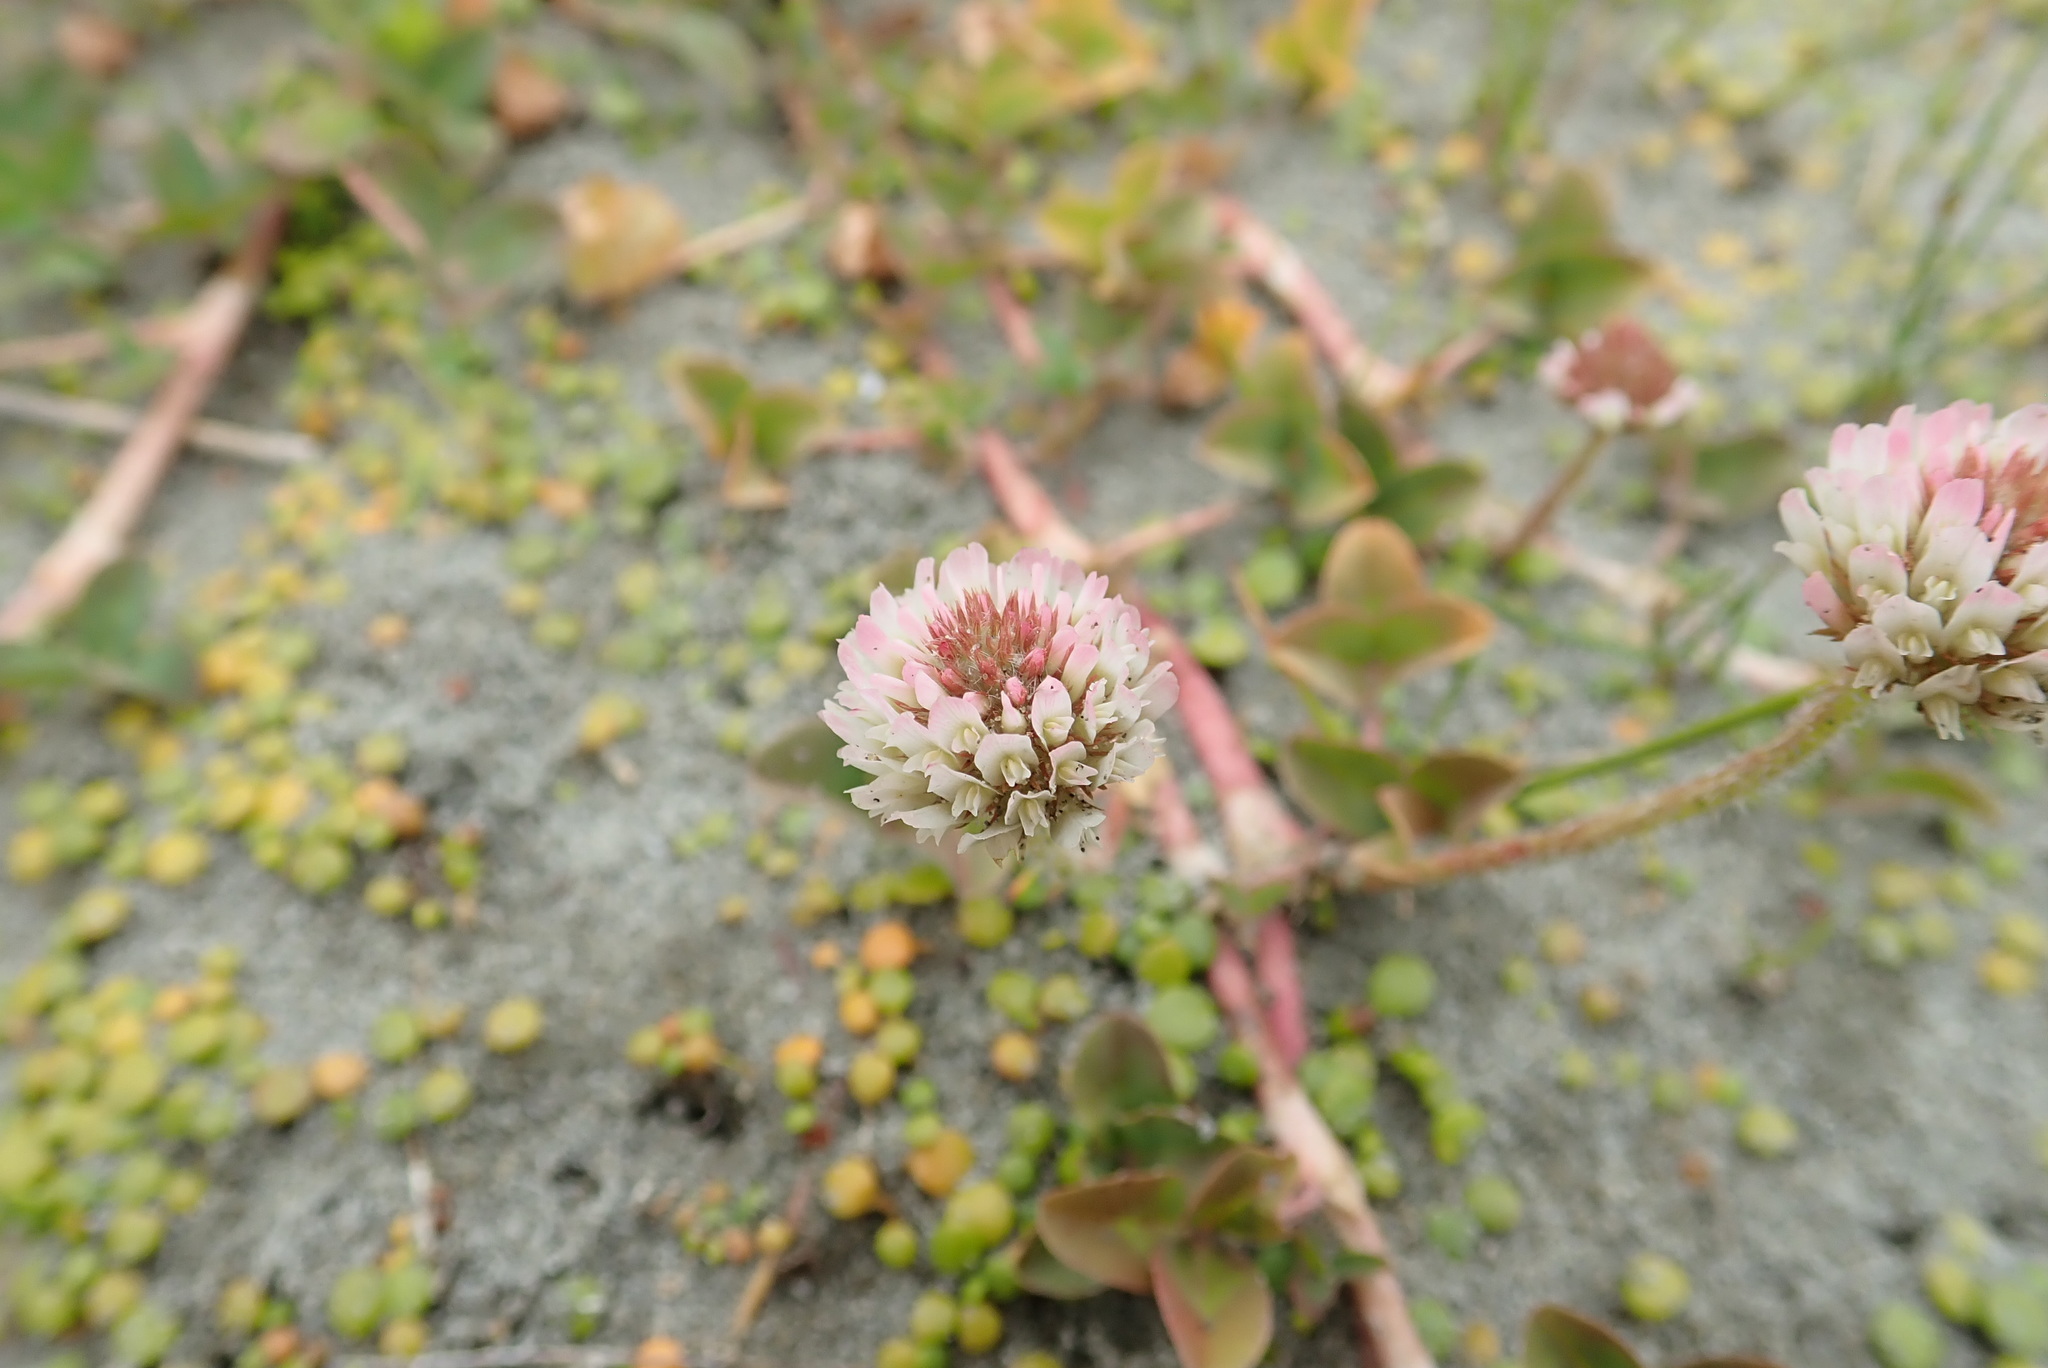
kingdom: Plantae
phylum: Tracheophyta
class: Magnoliopsida
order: Fabales
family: Fabaceae
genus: Trifolium
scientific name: Trifolium repens
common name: White clover
